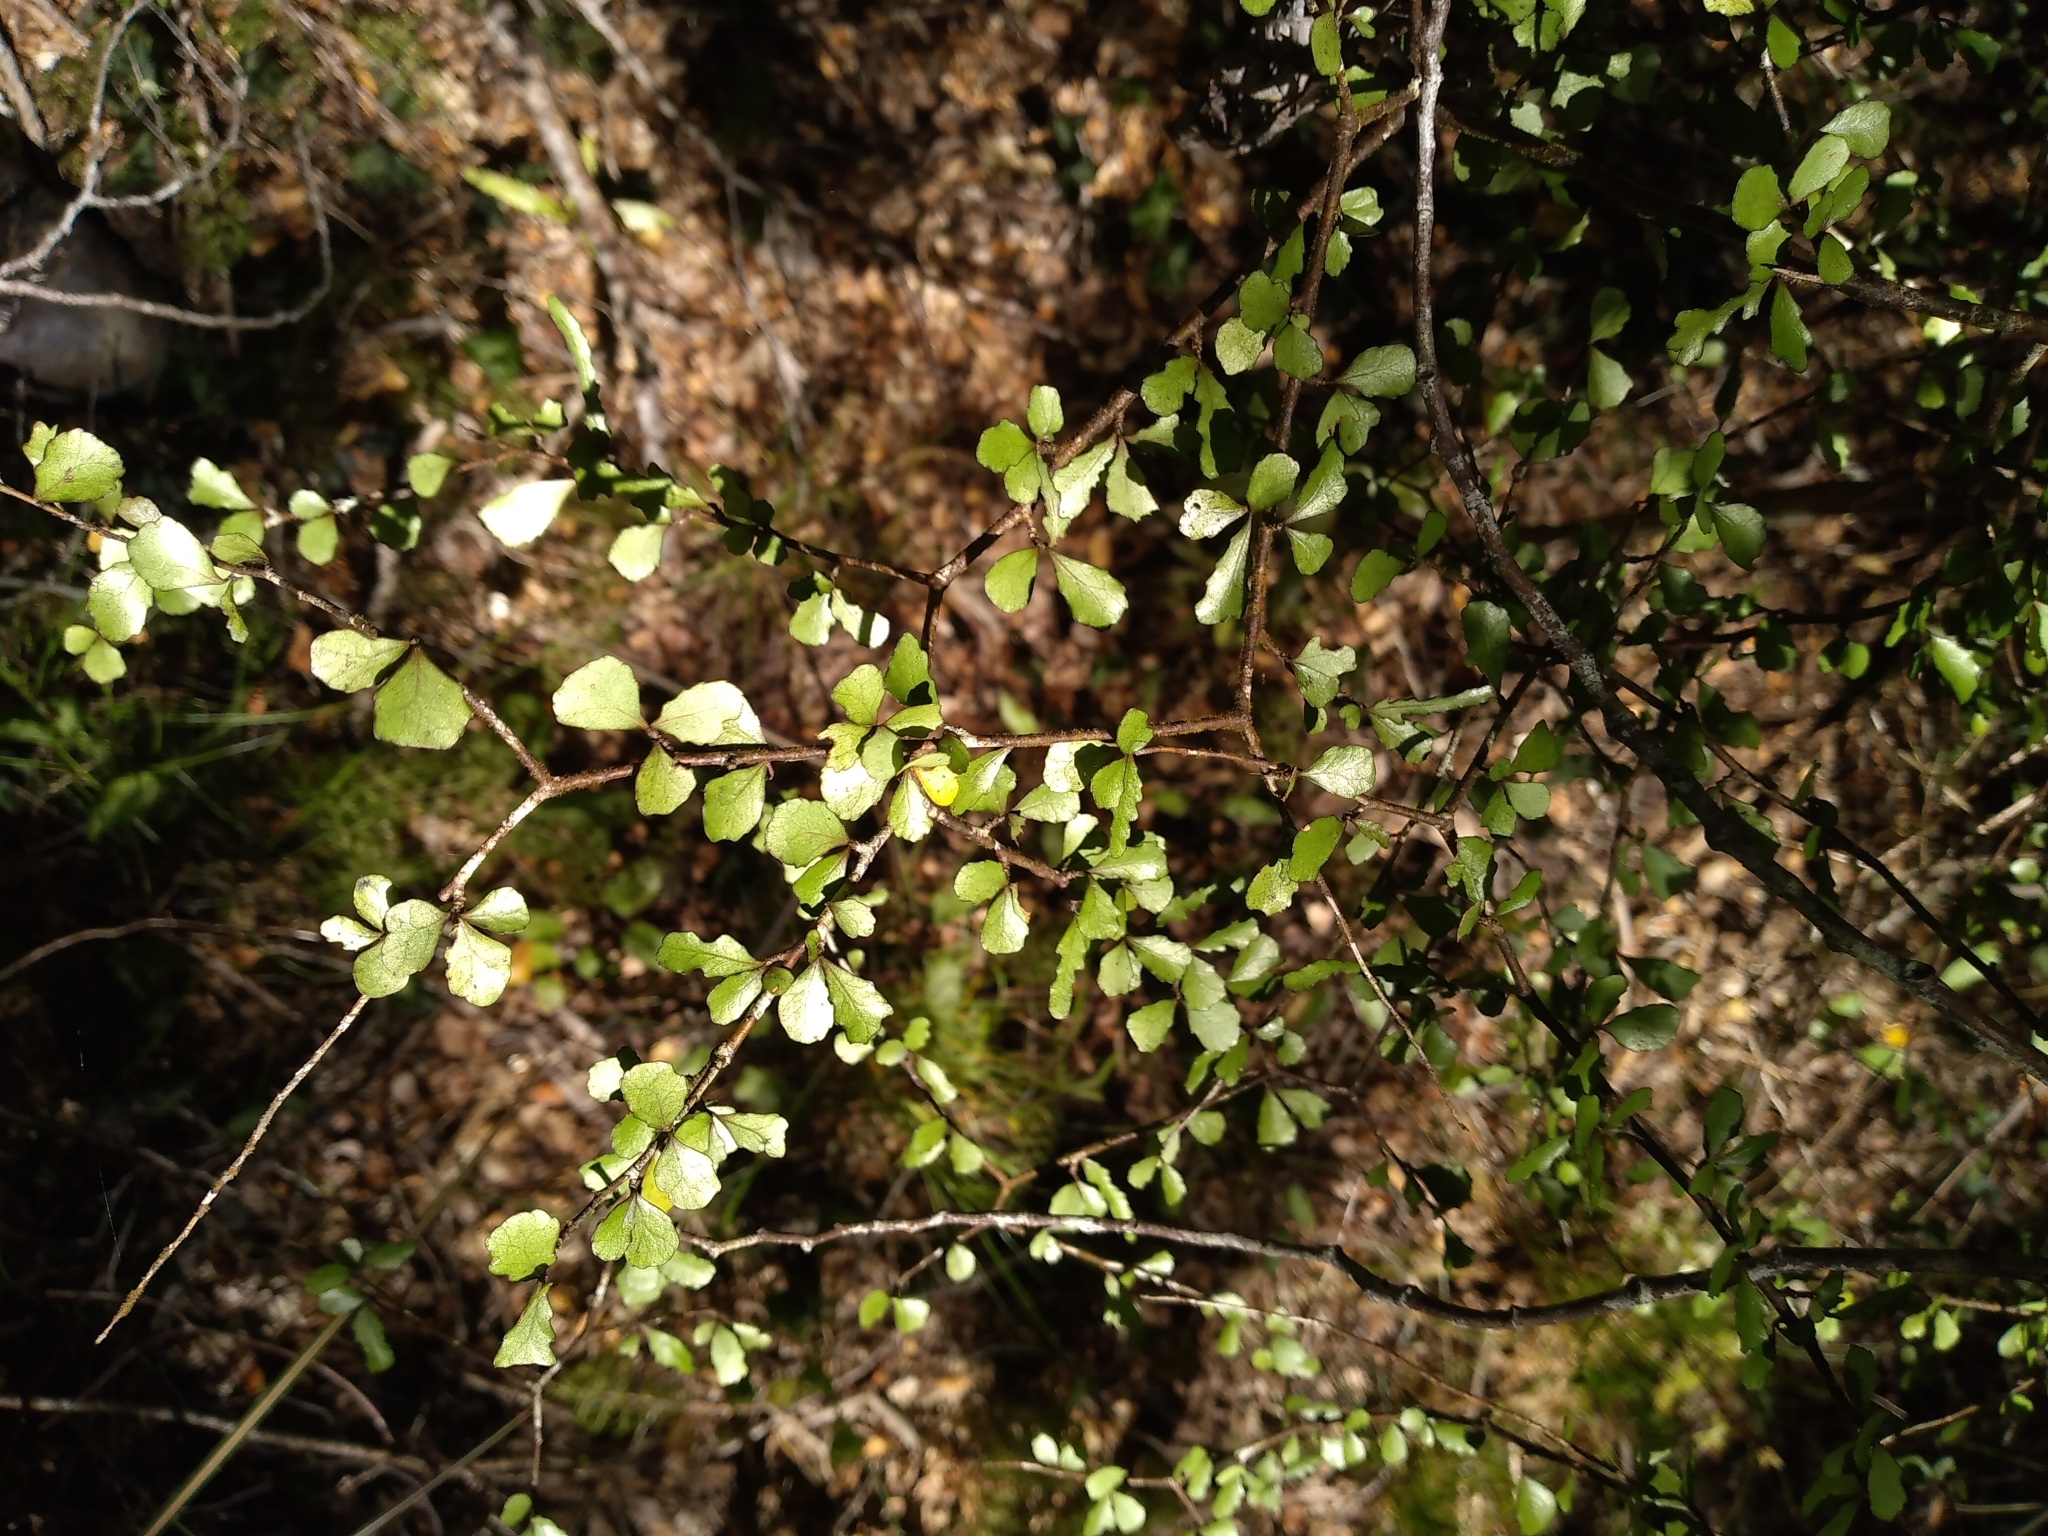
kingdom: Plantae
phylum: Tracheophyta
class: Magnoliopsida
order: Oxalidales
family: Elaeocarpaceae
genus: Elaeocarpus
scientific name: Elaeocarpus hookerianus
